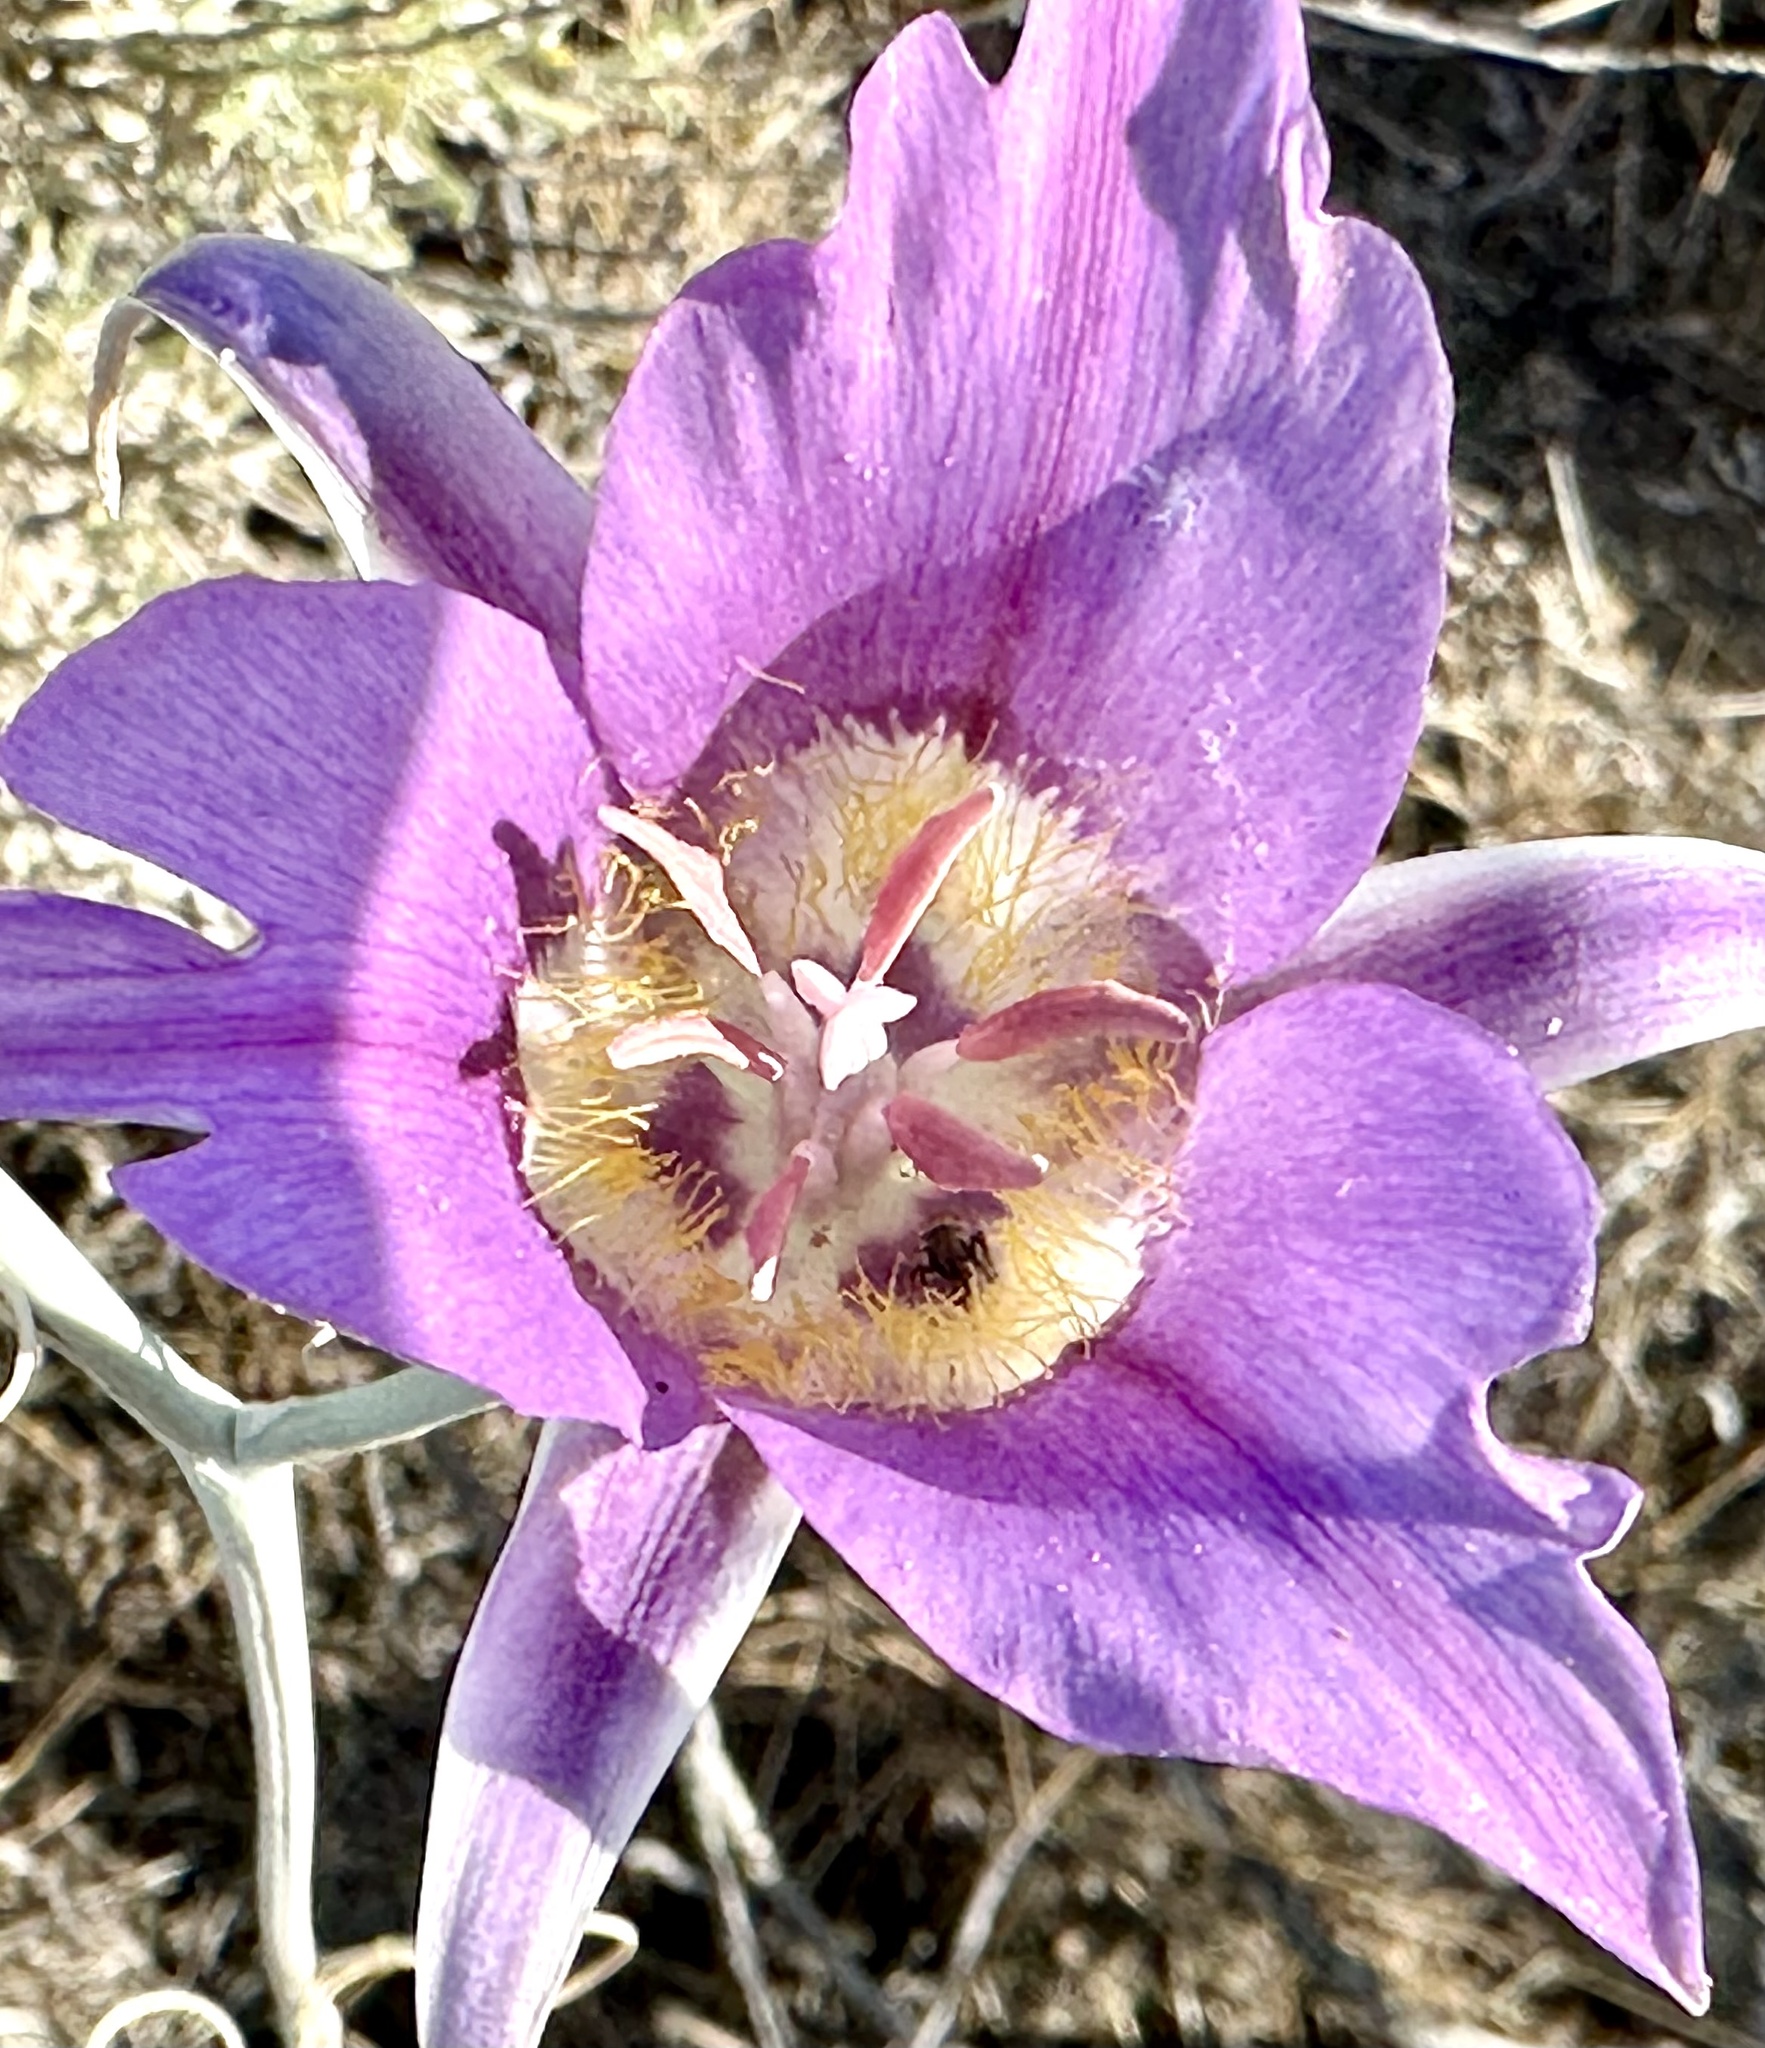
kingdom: Plantae
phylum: Tracheophyta
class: Liliopsida
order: Liliales
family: Liliaceae
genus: Calochortus
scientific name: Calochortus macrocarpus
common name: Green-band mariposa lily
